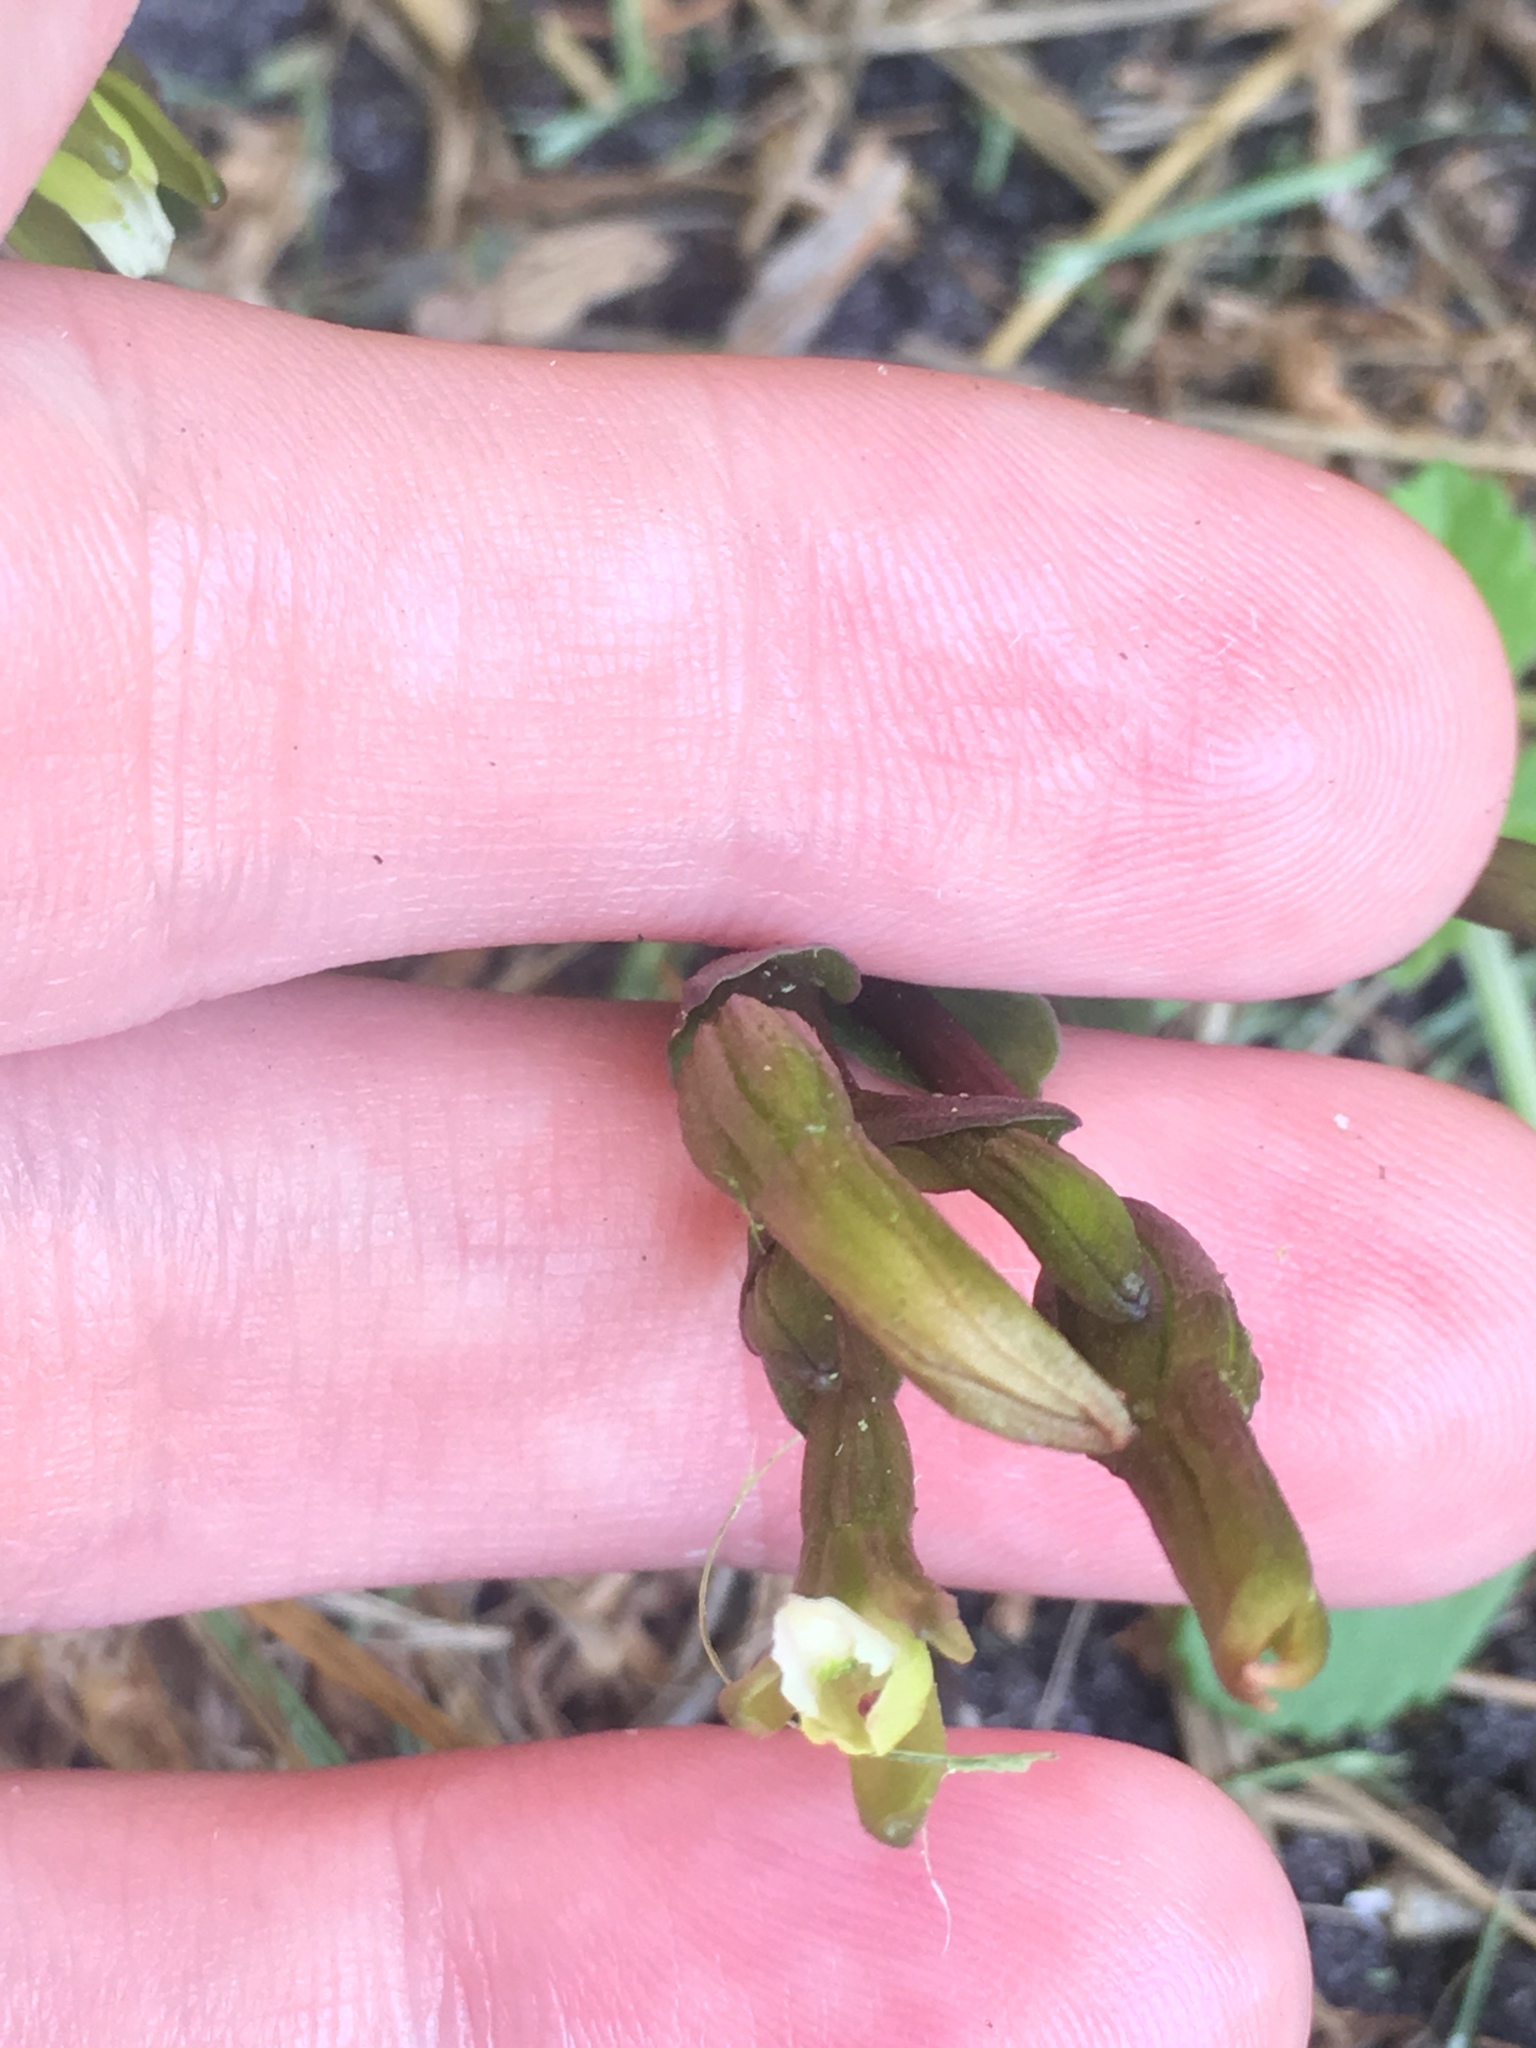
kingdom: Plantae
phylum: Tracheophyta
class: Liliopsida
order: Asparagales
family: Orchidaceae
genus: Triphora
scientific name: Triphora gentianoides
